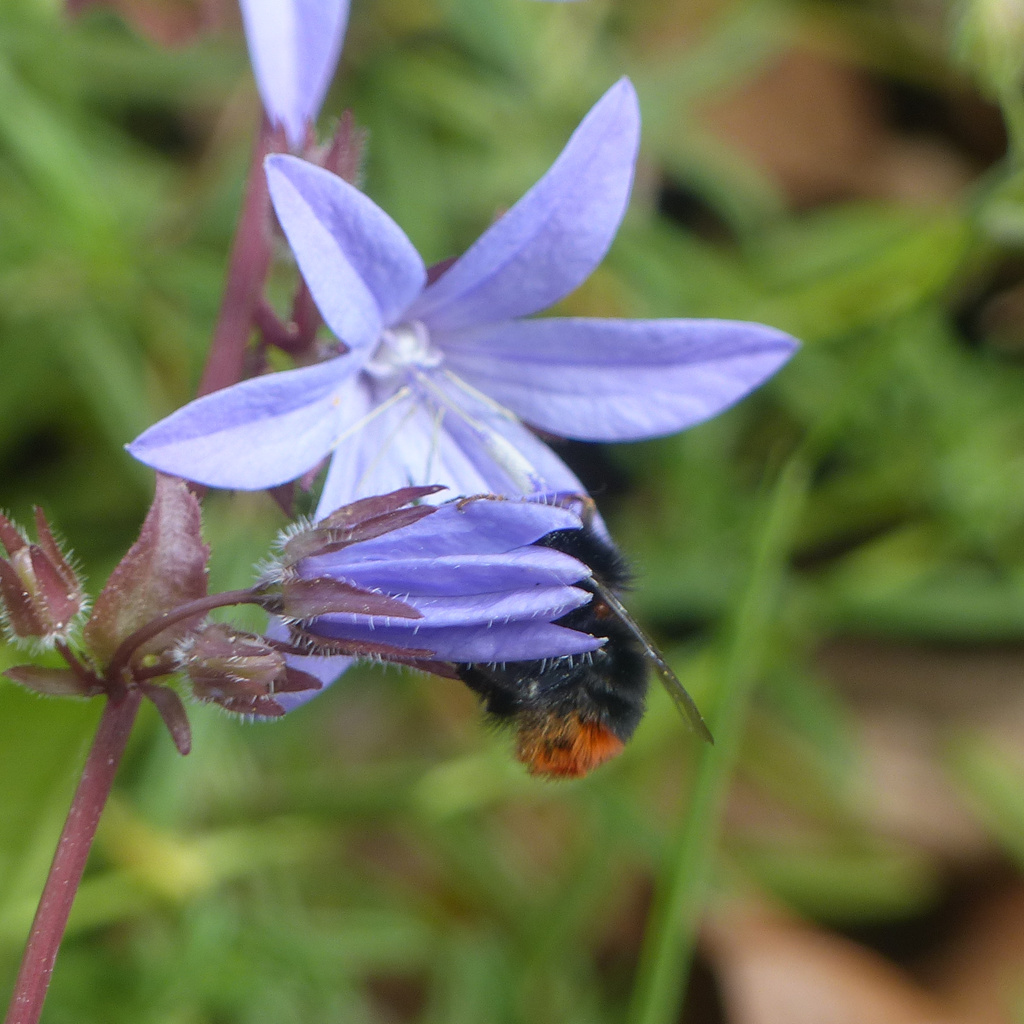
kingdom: Animalia
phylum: Arthropoda
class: Insecta
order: Hymenoptera
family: Apidae
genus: Bombus
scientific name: Bombus lapidarius
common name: Large red-tailed humble-bee
